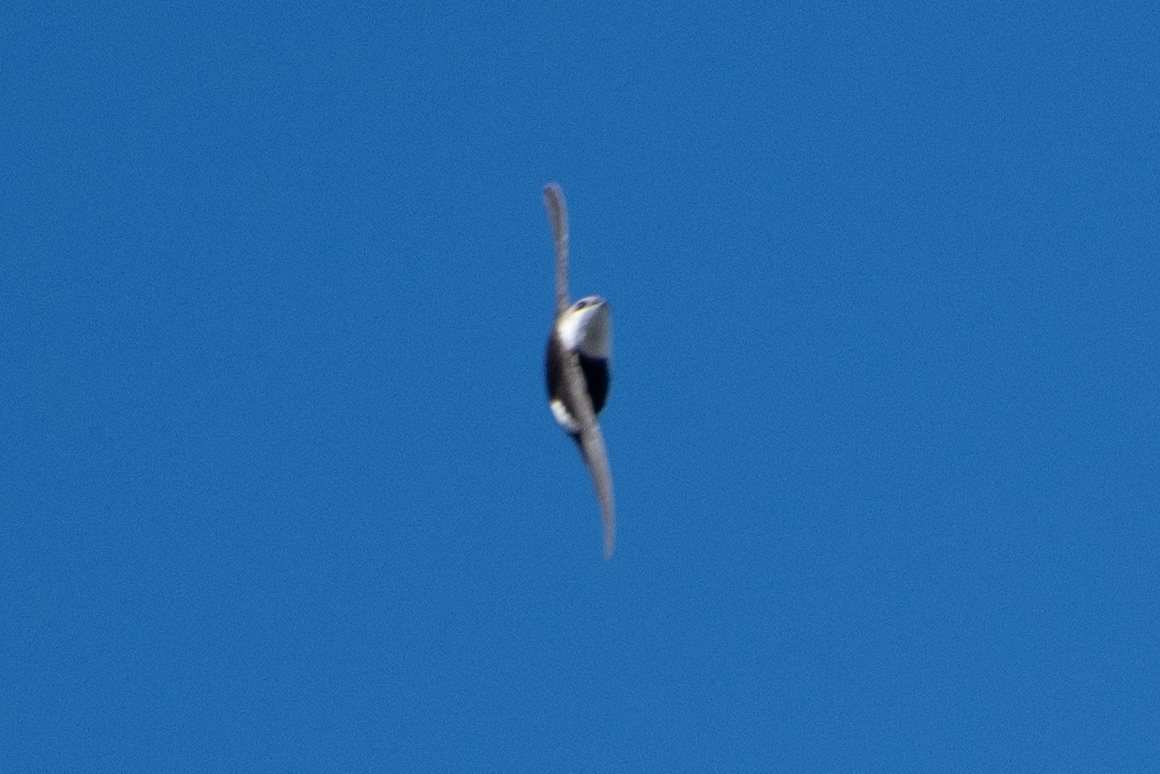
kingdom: Animalia
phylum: Chordata
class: Aves
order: Apodiformes
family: Apodidae
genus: Aeronautes
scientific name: Aeronautes saxatalis
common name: White-throated swift
